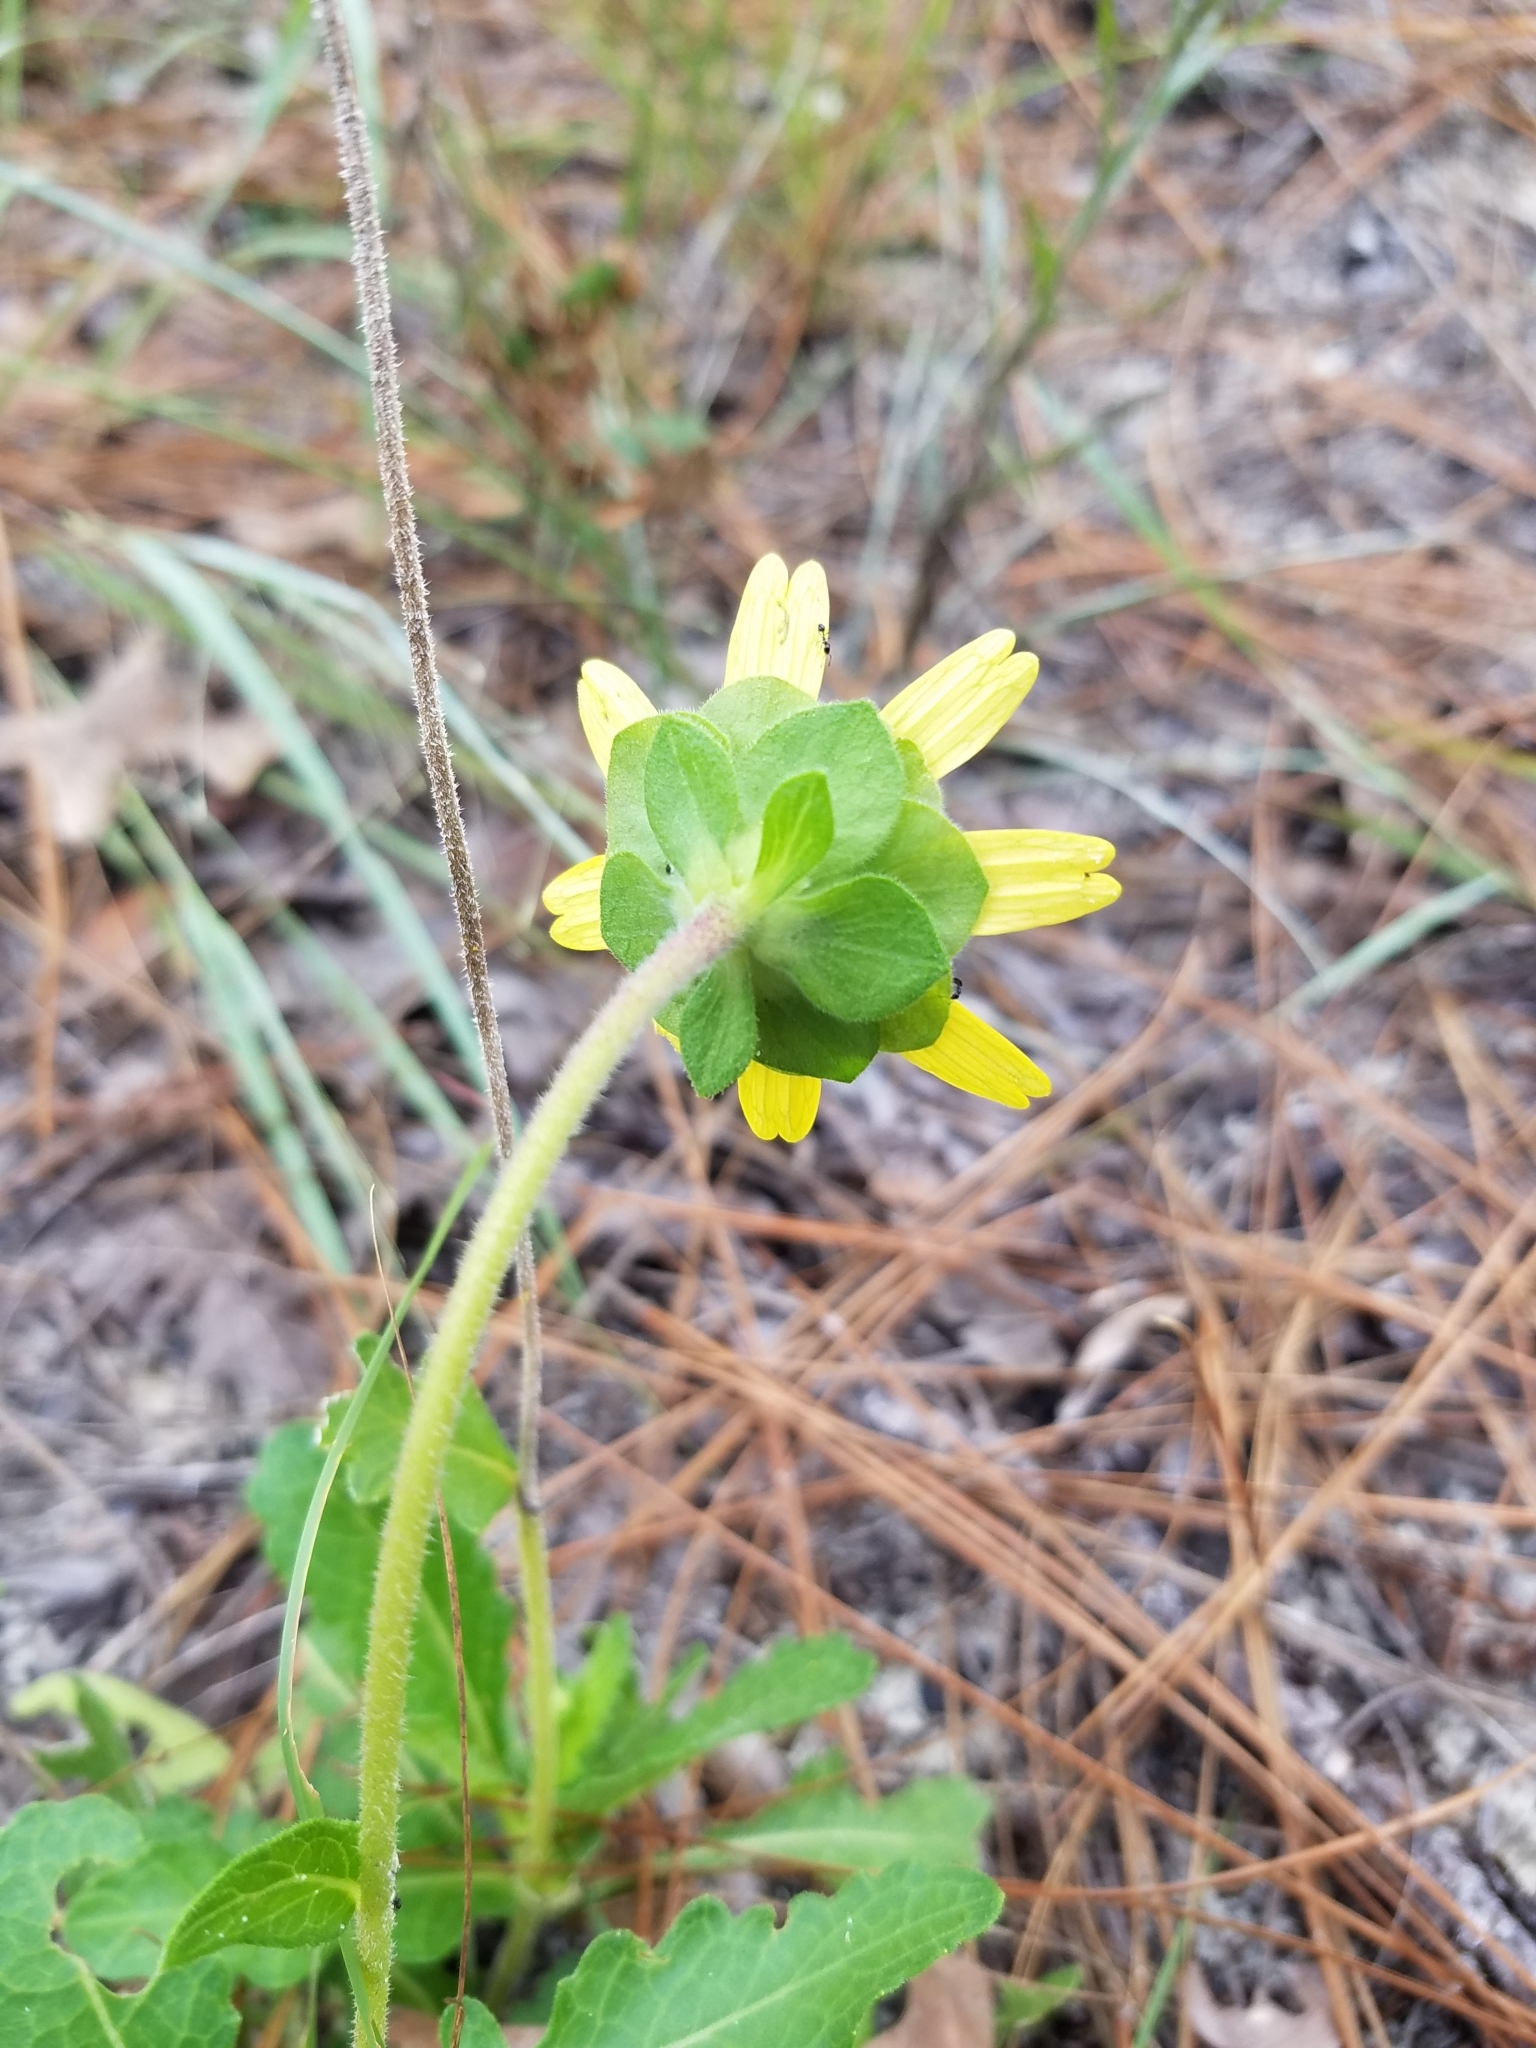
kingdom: Plantae
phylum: Tracheophyta
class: Magnoliopsida
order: Asterales
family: Asteraceae
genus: Berlandiera
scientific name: Berlandiera subacaulis
